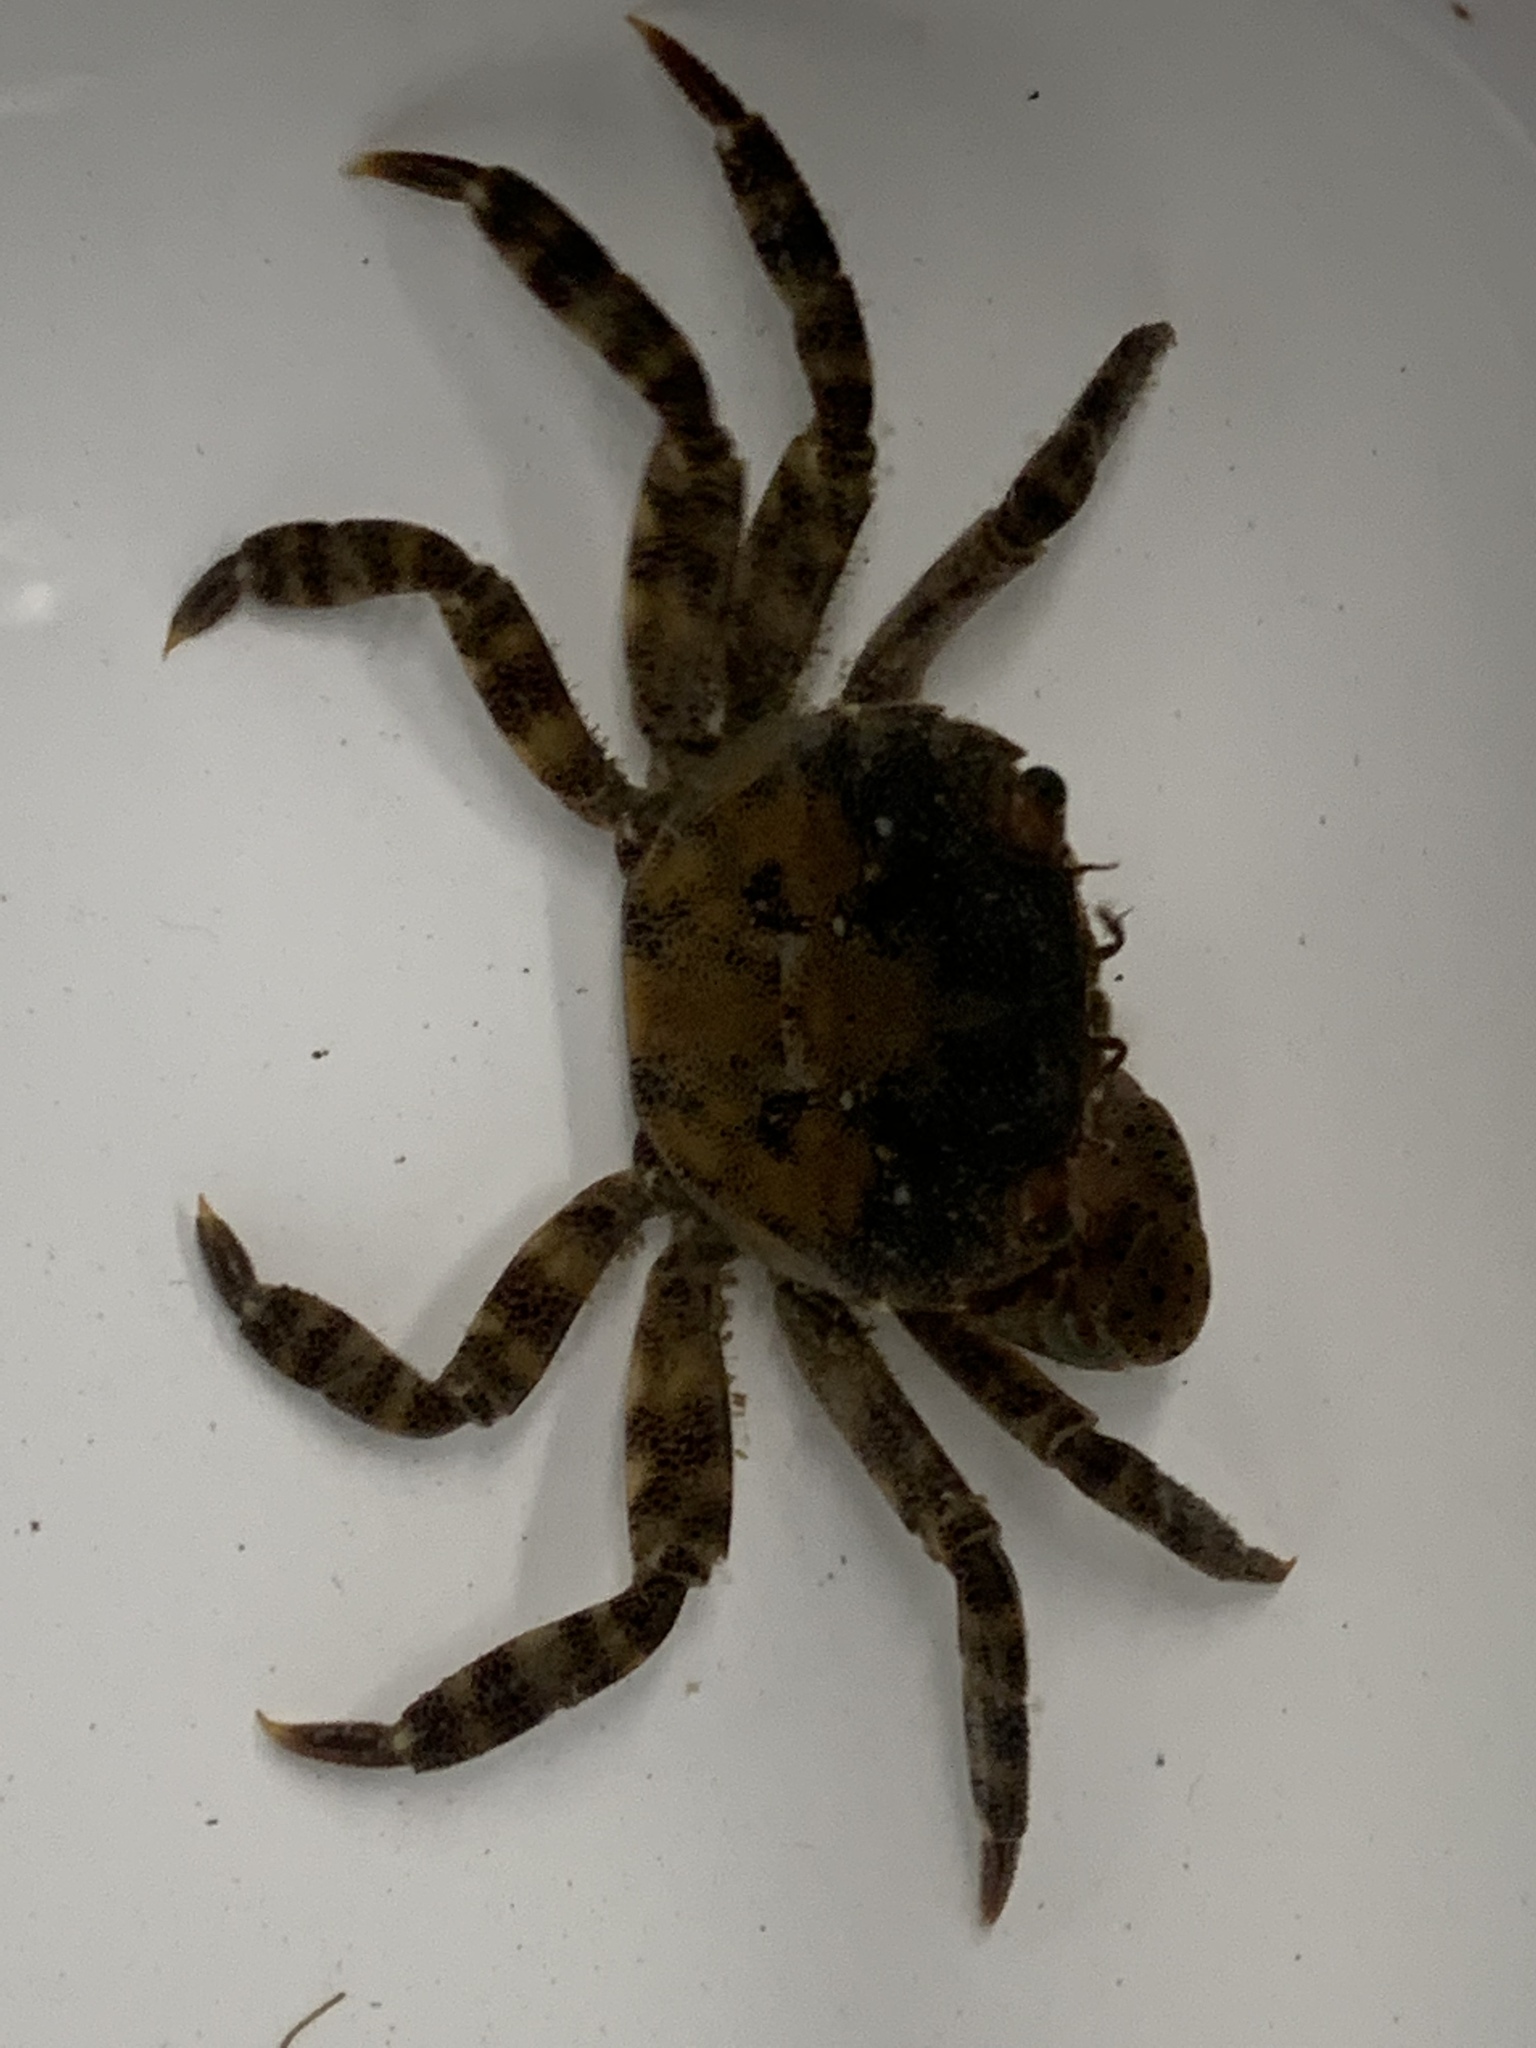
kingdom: Animalia
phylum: Arthropoda
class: Malacostraca
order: Decapoda
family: Varunidae
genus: Hemigrapsus
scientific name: Hemigrapsus sanguineus
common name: Asian shore crab
